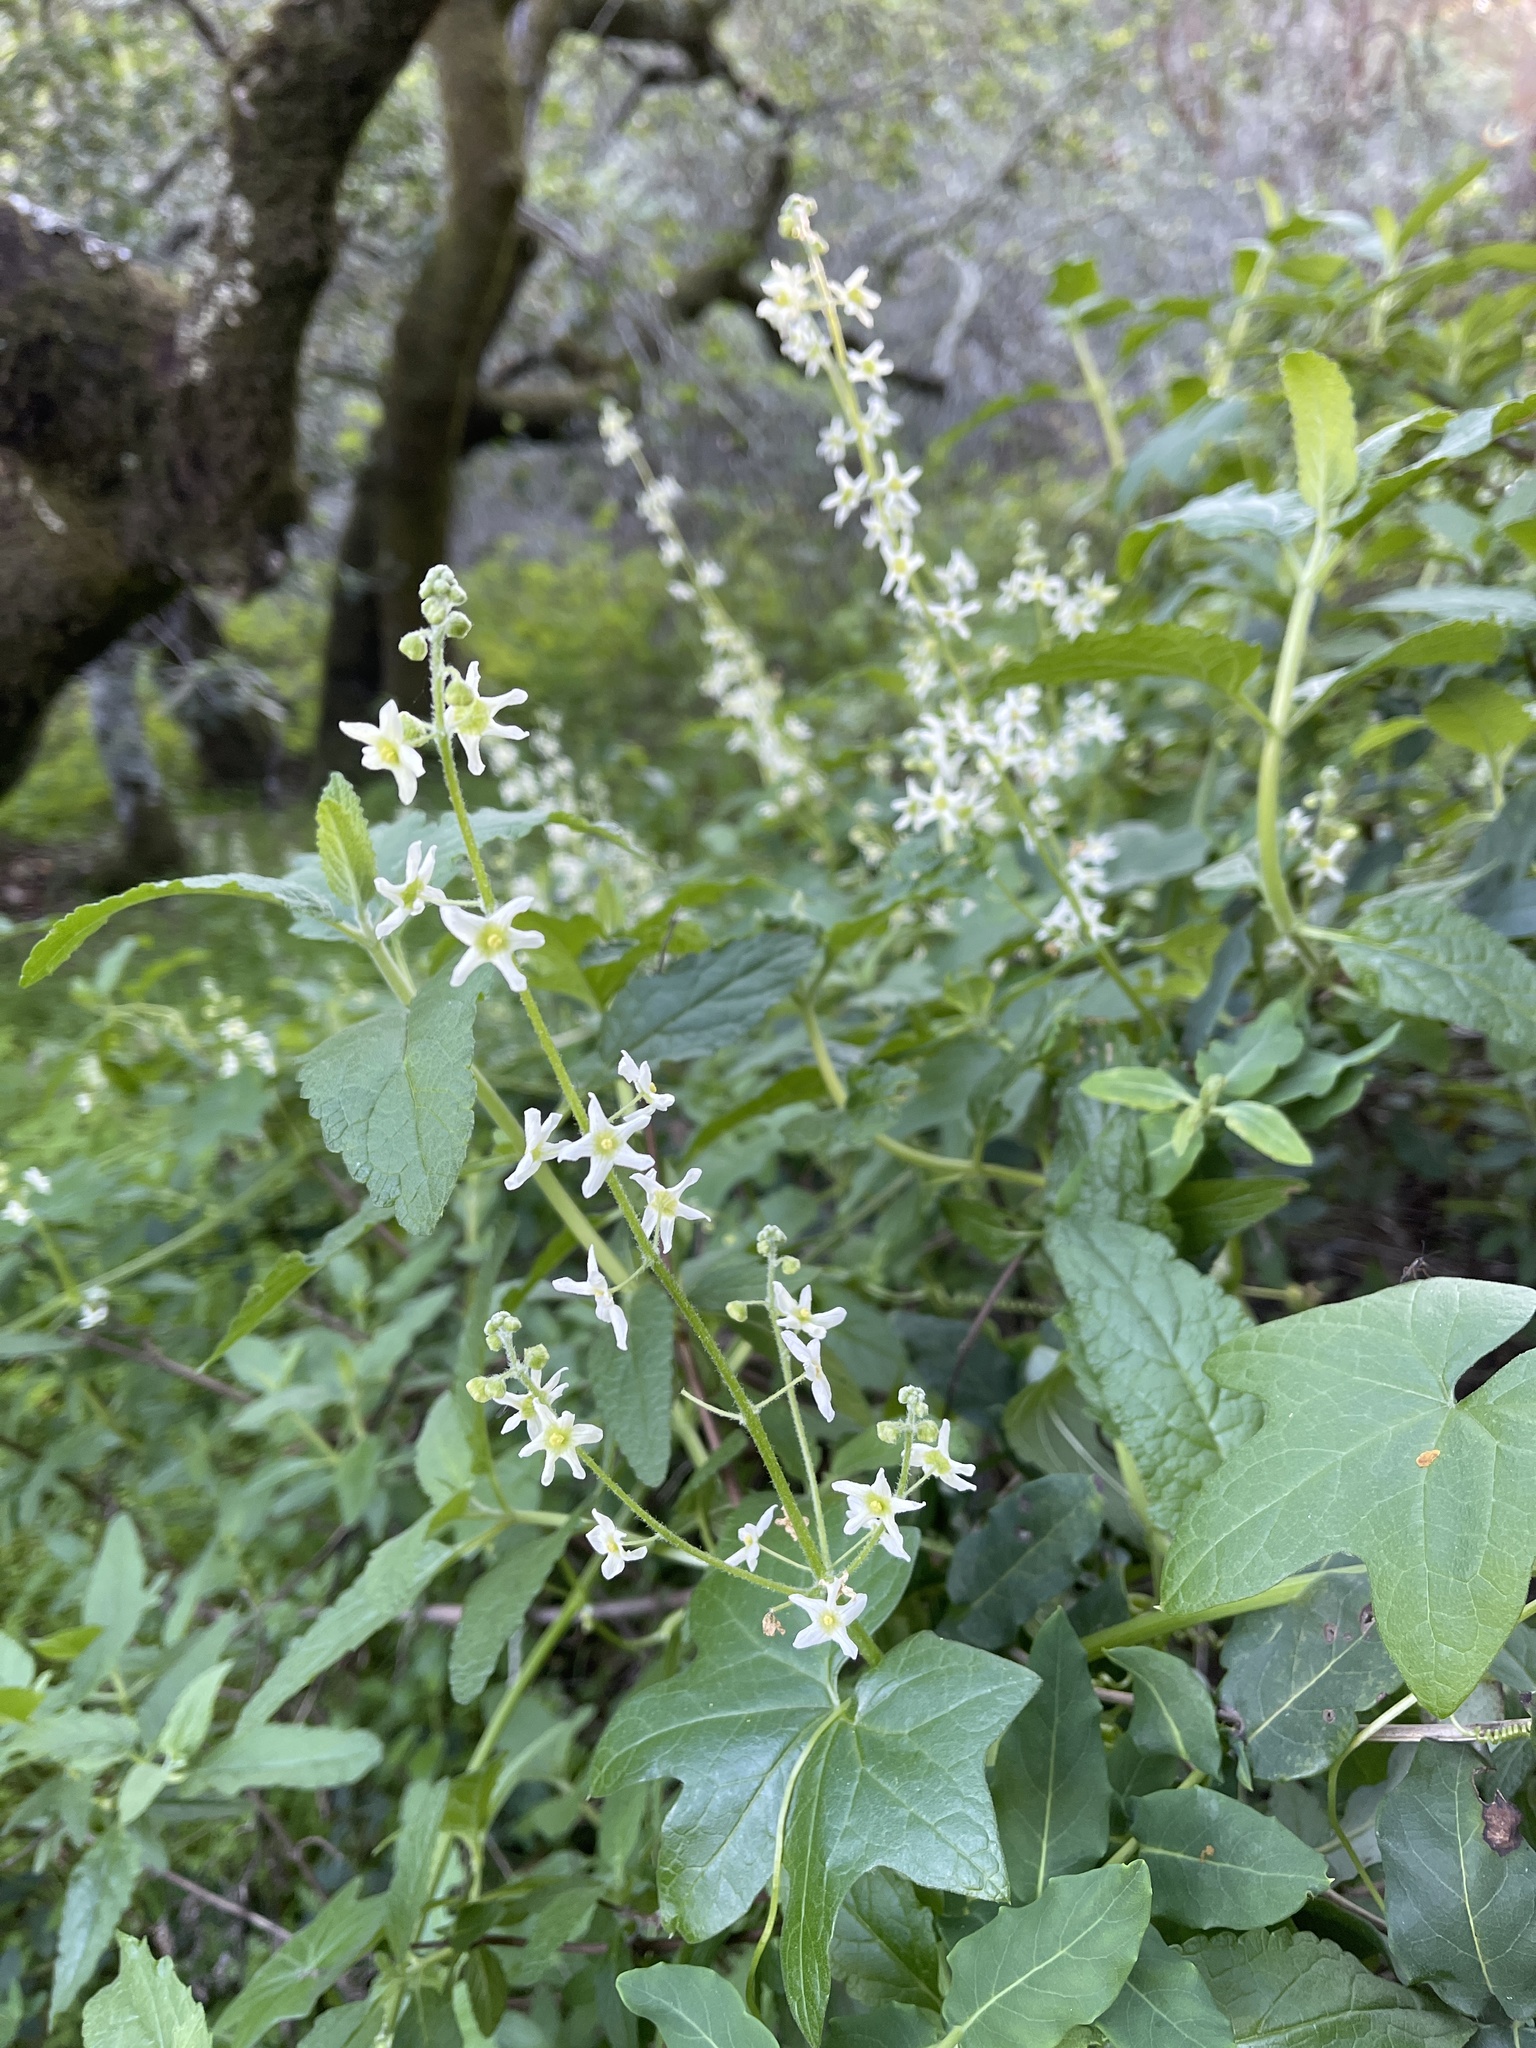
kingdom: Plantae
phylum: Tracheophyta
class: Magnoliopsida
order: Cucurbitales
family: Cucurbitaceae
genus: Marah
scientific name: Marah fabacea
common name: California manroot
